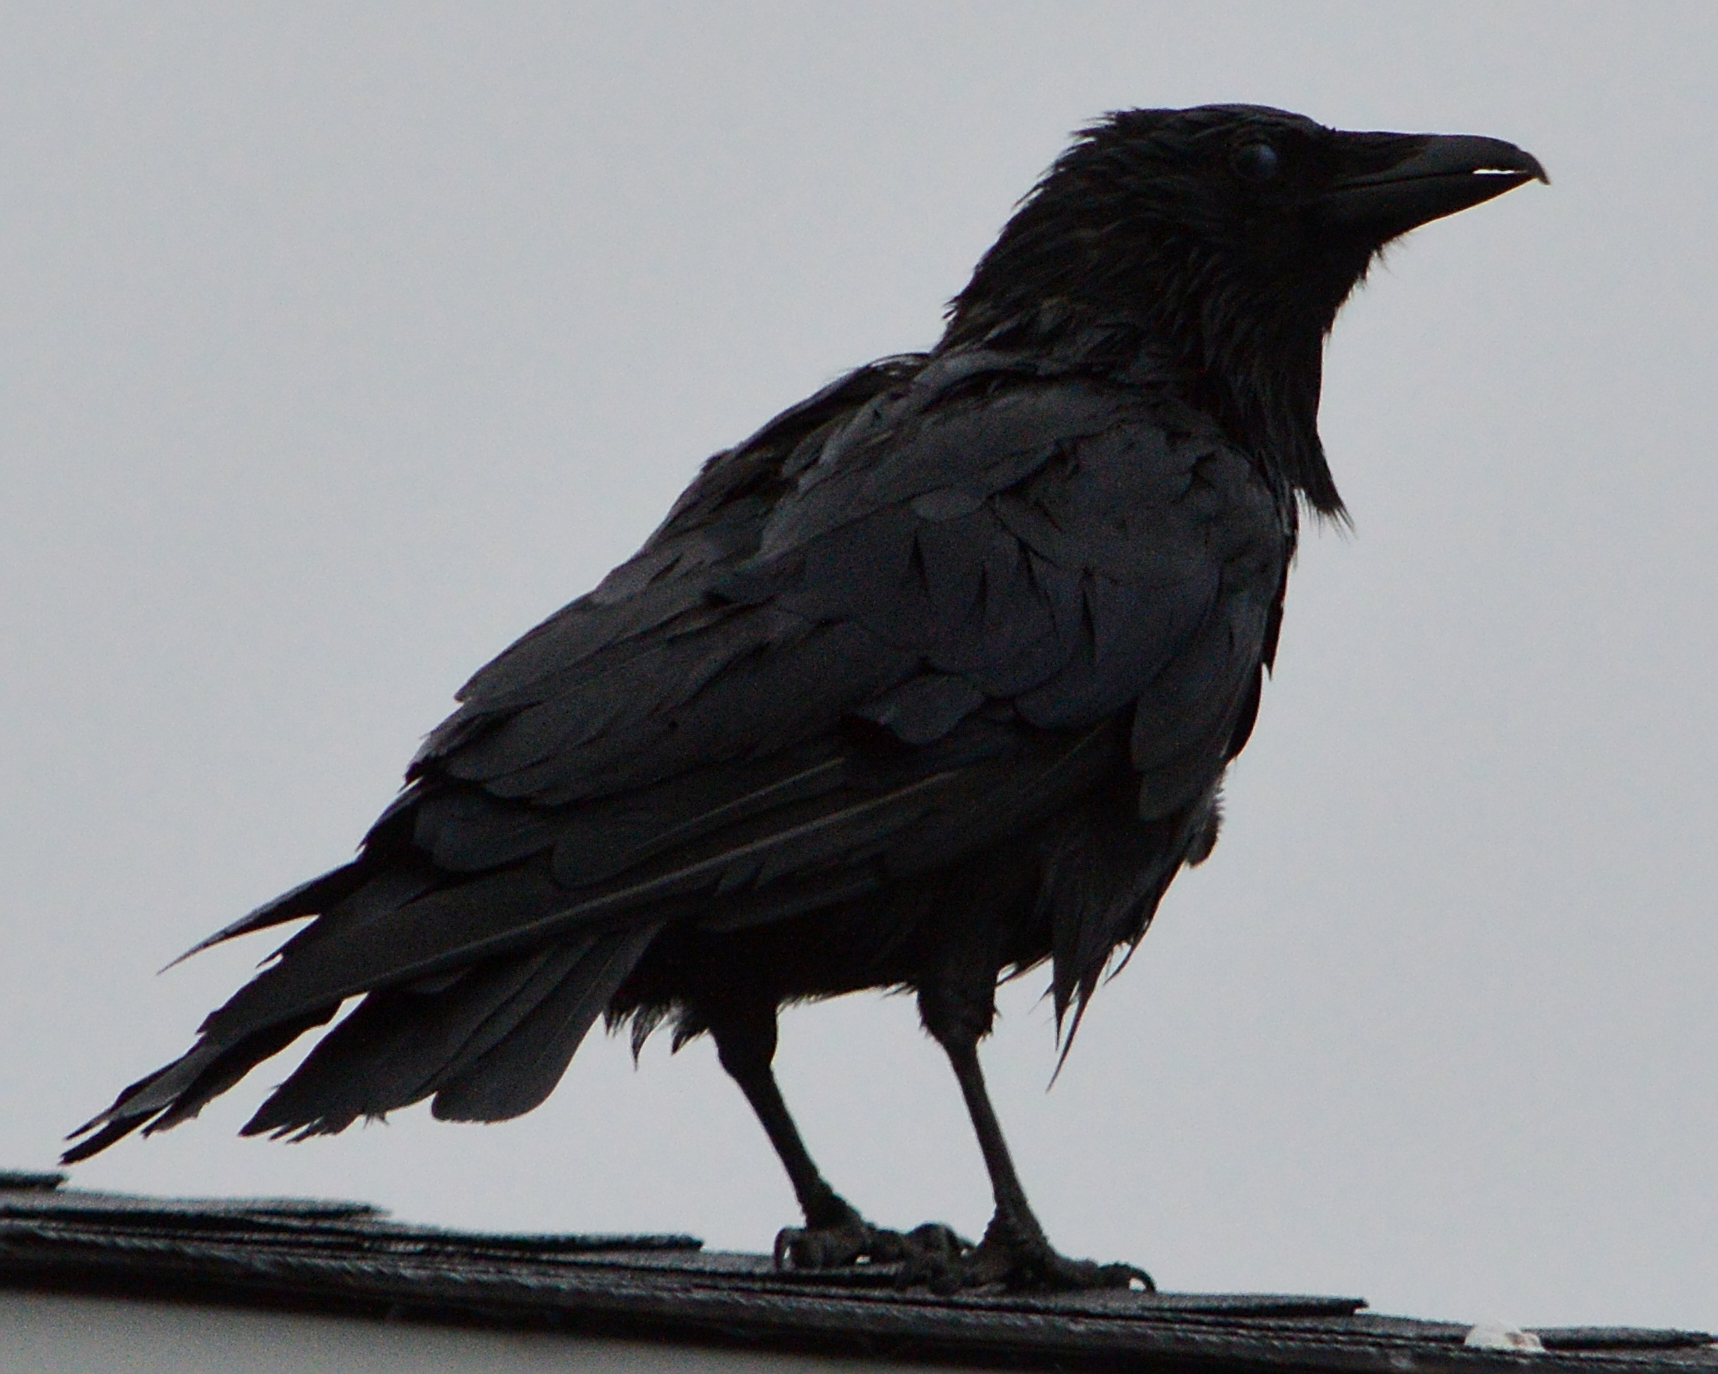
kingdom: Animalia
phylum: Chordata
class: Aves
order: Passeriformes
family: Corvidae
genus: Corvus
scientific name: Corvus brachyrhynchos
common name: American crow
